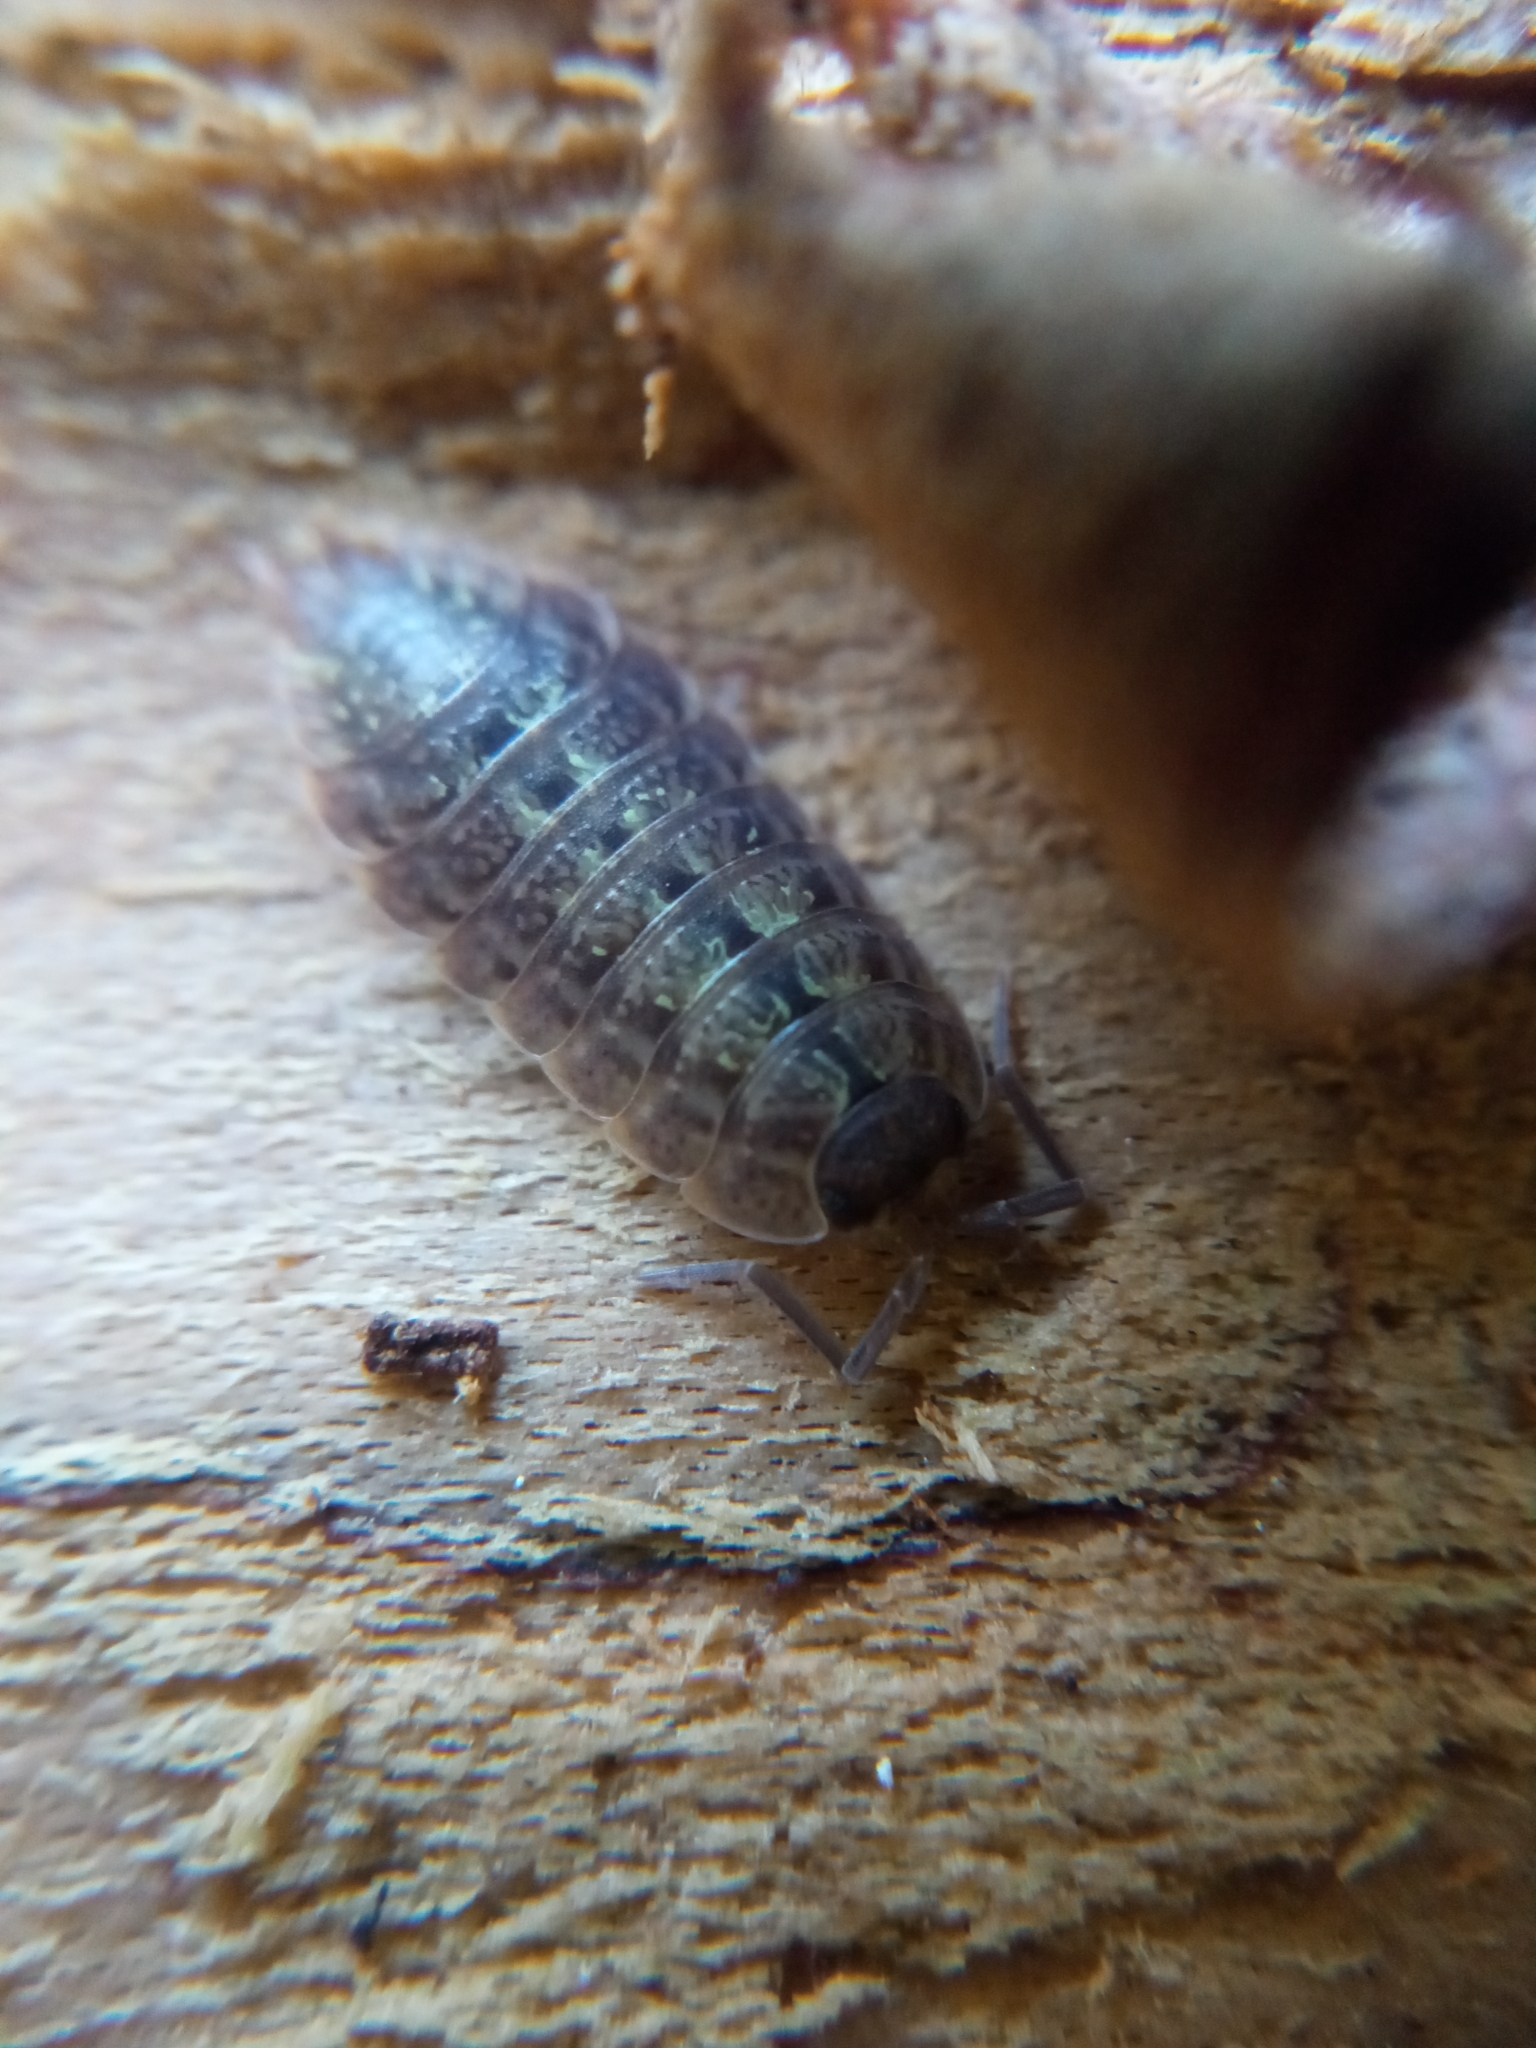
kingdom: Animalia
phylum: Arthropoda
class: Malacostraca
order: Isopoda
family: Porcellionidae
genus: Porcellio
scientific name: Porcellio monticola
